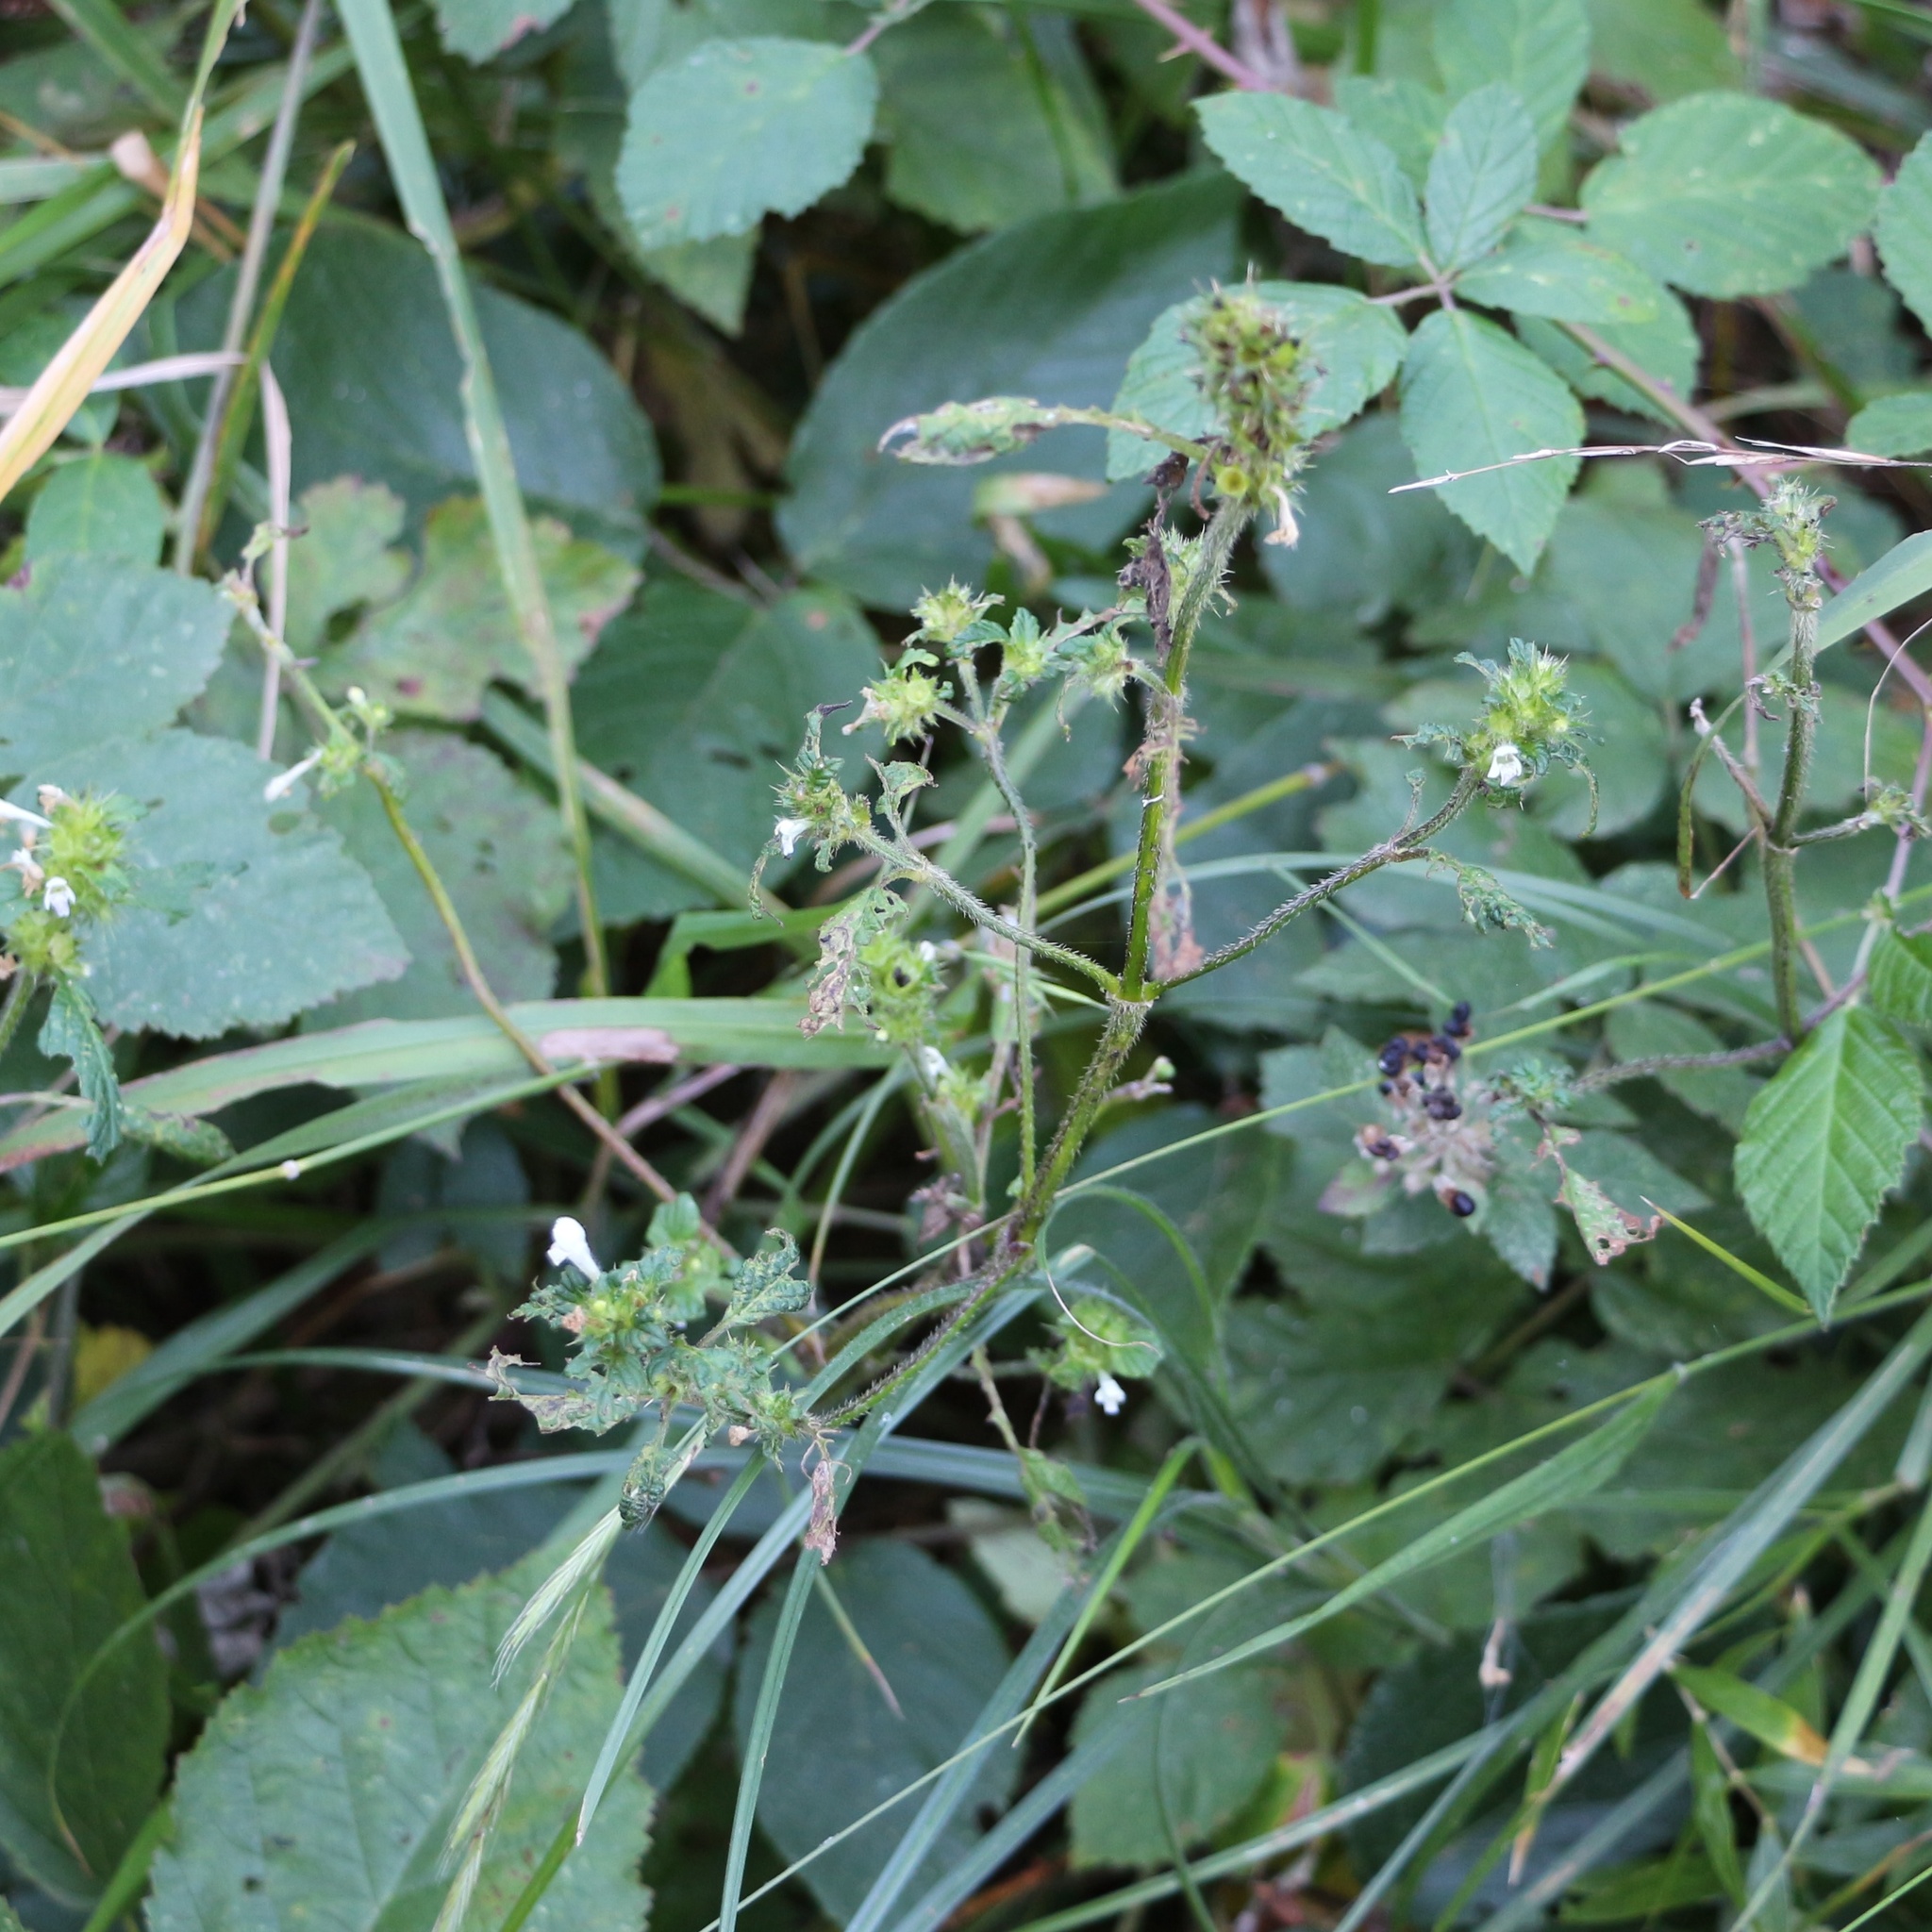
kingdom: Plantae
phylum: Tracheophyta
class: Magnoliopsida
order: Lamiales
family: Lamiaceae
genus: Galeopsis
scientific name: Galeopsis bifida
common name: Bifid hemp-nettle
